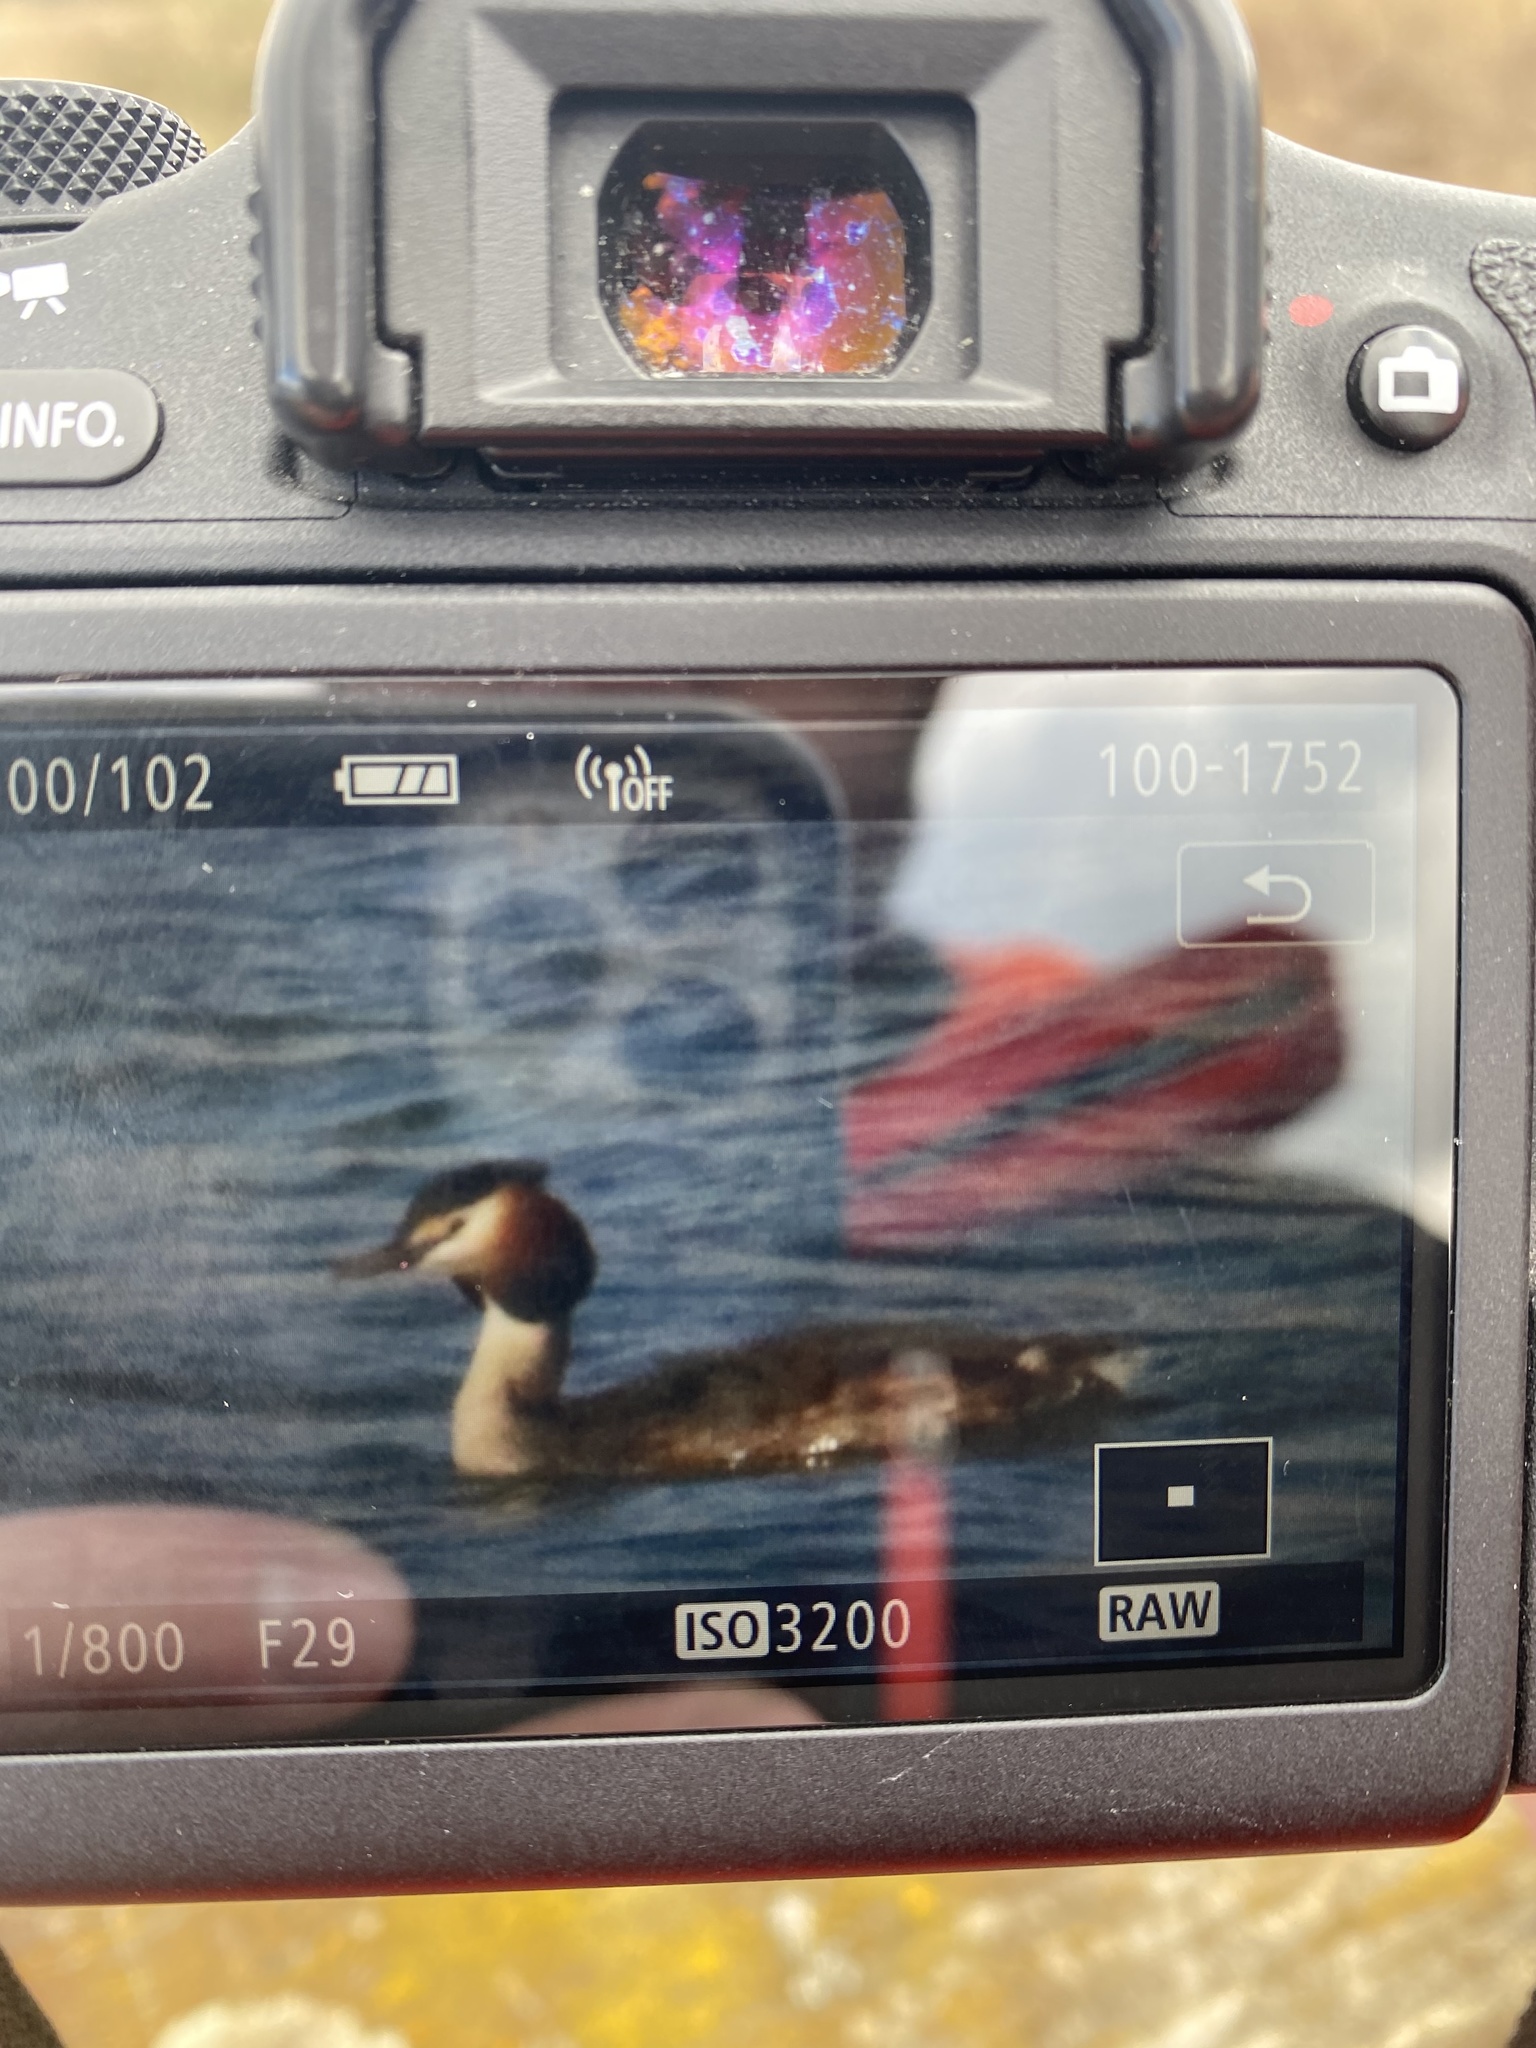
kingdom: Animalia
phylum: Chordata
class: Aves
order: Podicipediformes
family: Podicipedidae
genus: Podiceps
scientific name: Podiceps cristatus
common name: Great crested grebe
